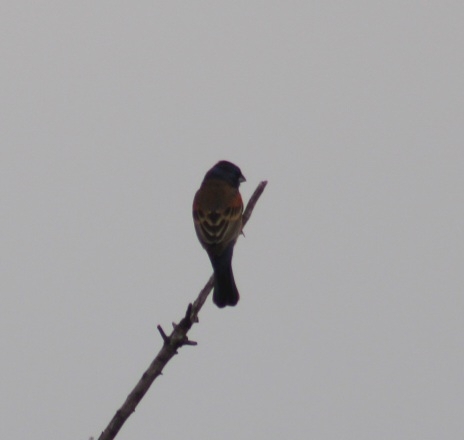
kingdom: Animalia
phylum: Chordata
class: Aves
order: Passeriformes
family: Cardinalidae
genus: Passerina
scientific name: Passerina caerulea
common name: Blue grosbeak
